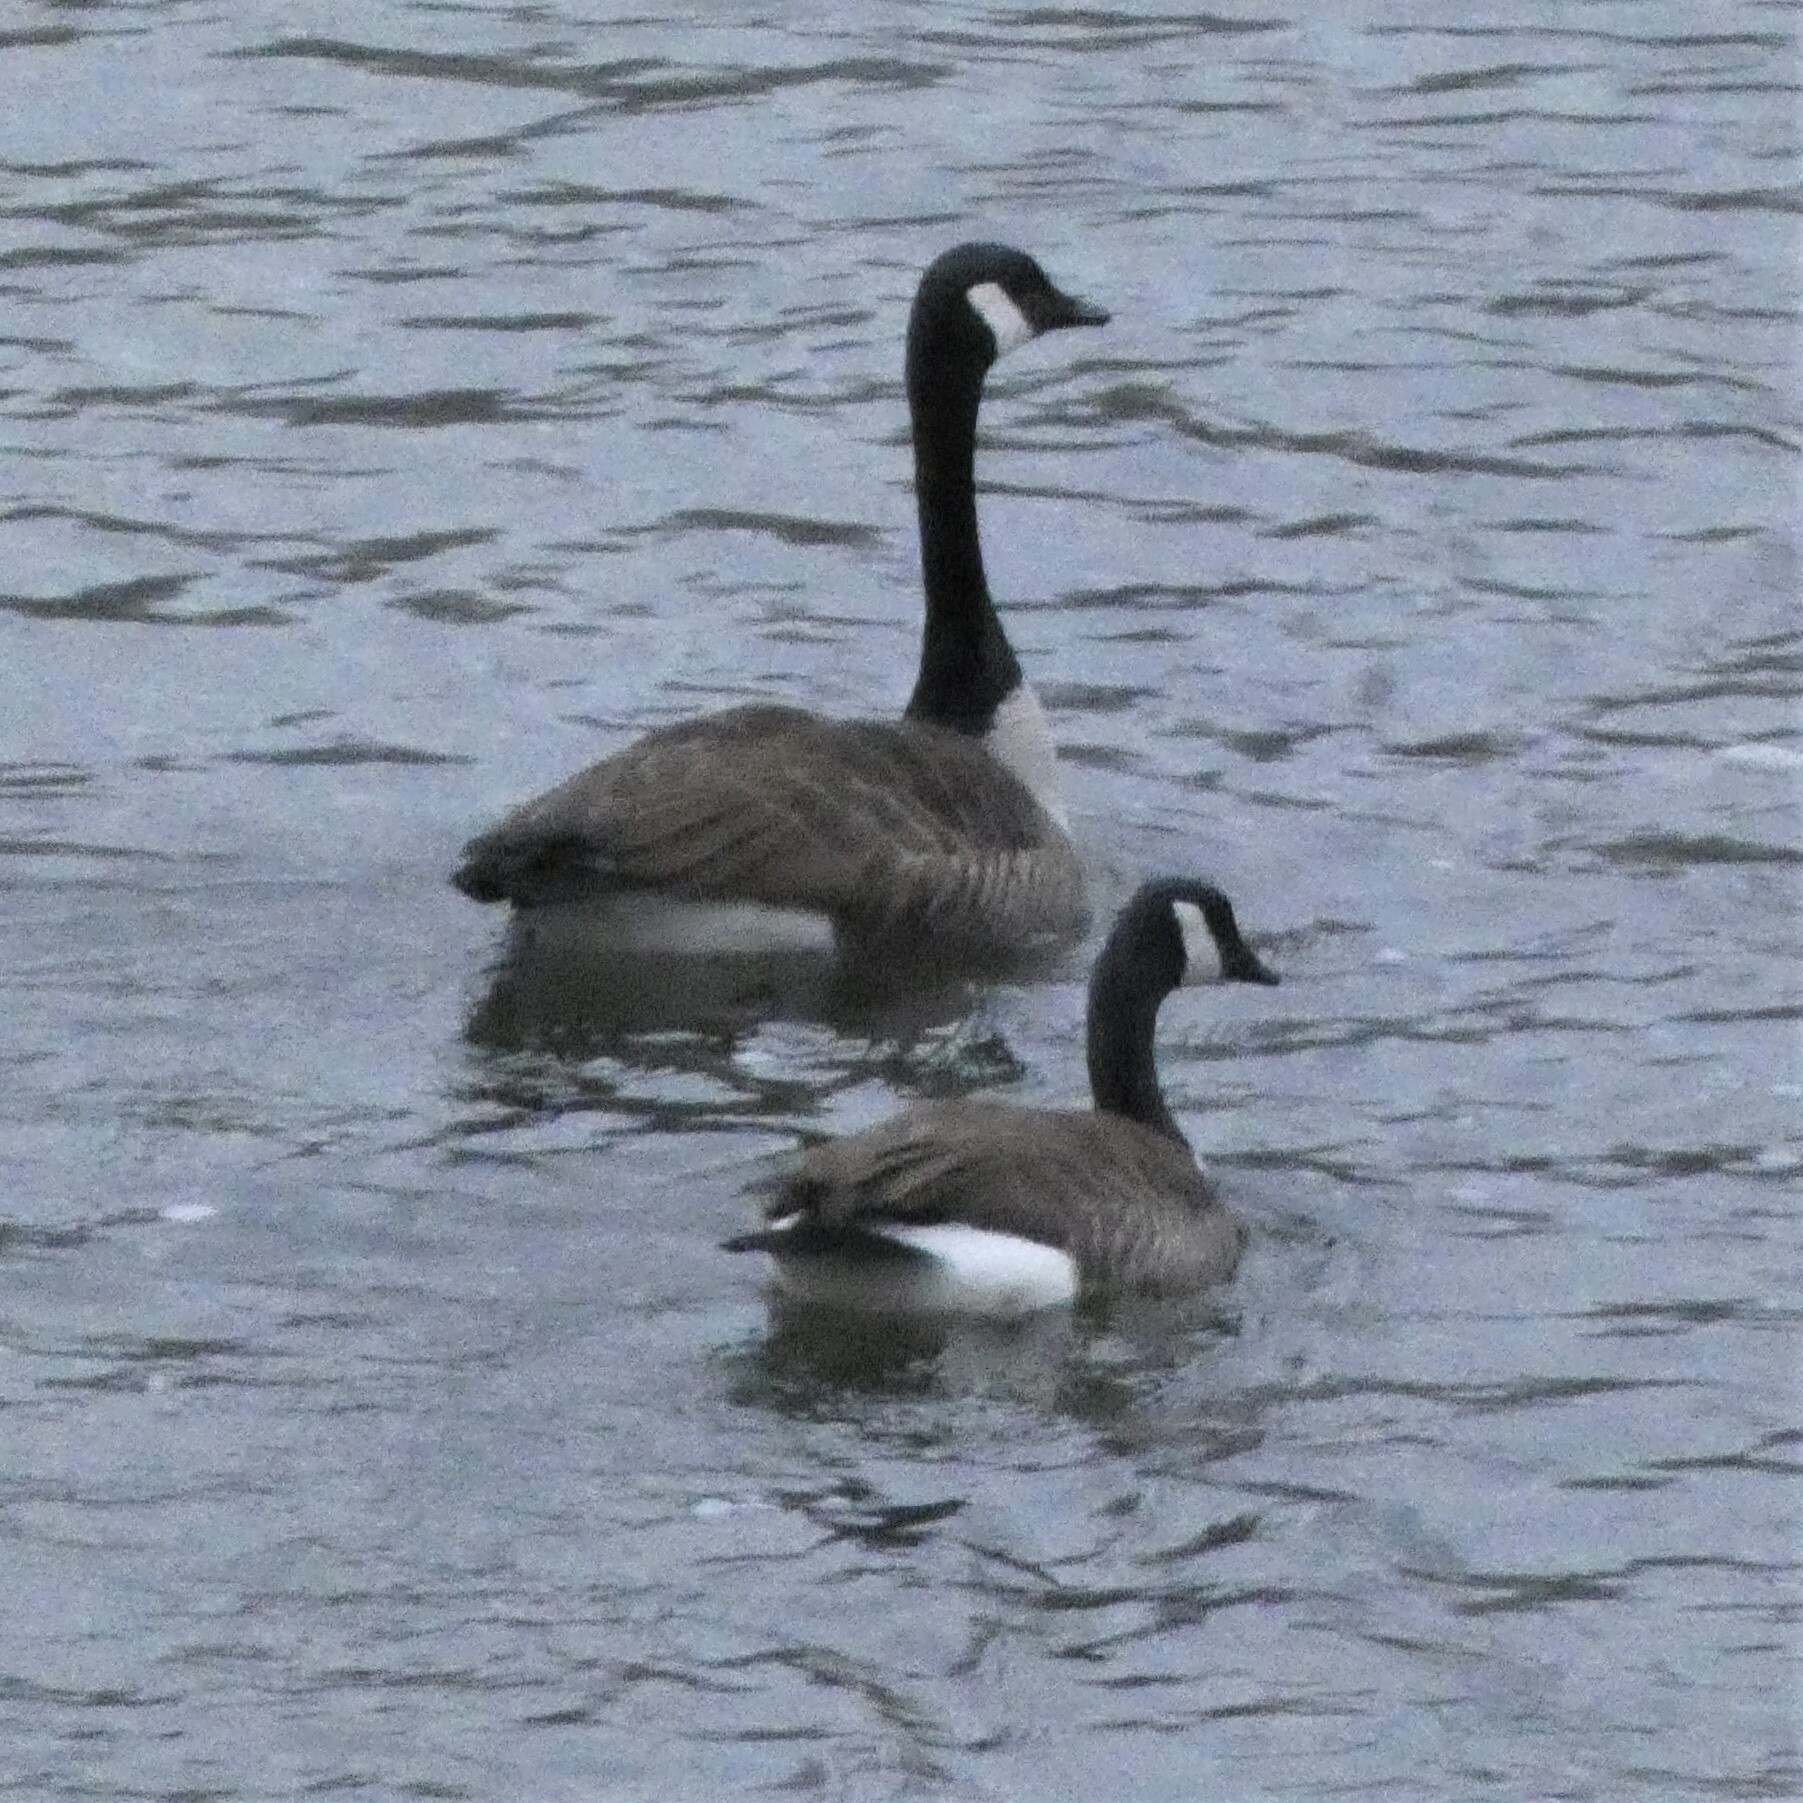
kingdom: Animalia
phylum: Chordata
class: Aves
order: Anseriformes
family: Anatidae
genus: Branta
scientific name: Branta canadensis
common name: Canada goose
